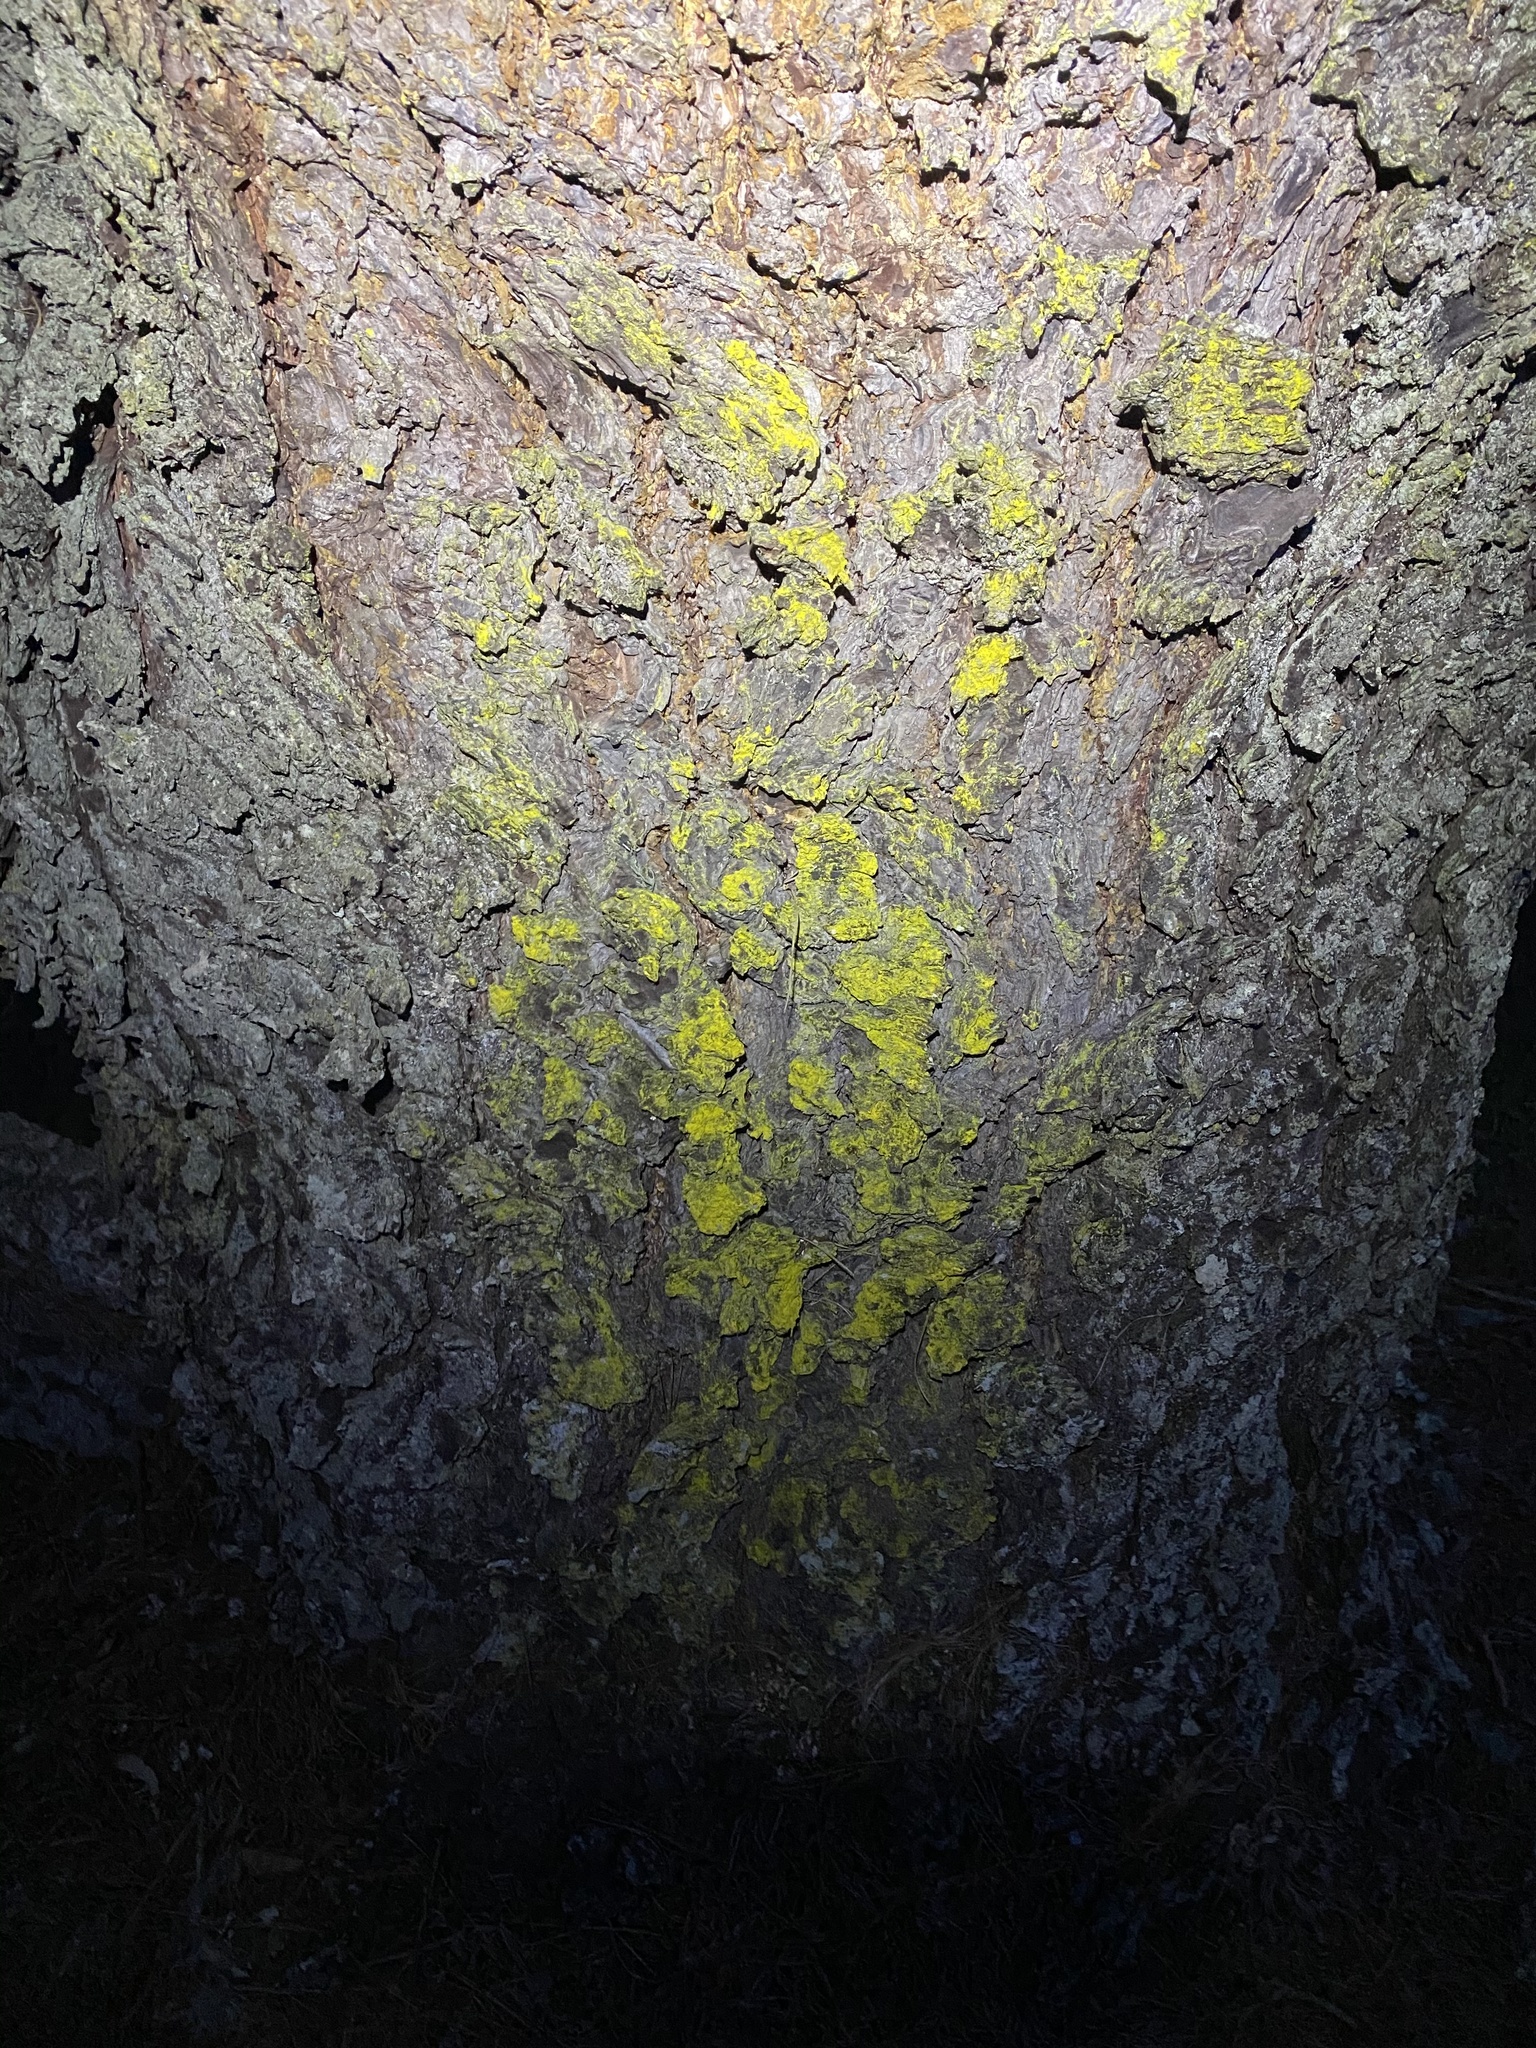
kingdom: Fungi
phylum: Ascomycota
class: Arthoniomycetes
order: Arthoniales
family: Chrysotrichaceae
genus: Chrysothrix
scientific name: Chrysothrix candelaris
